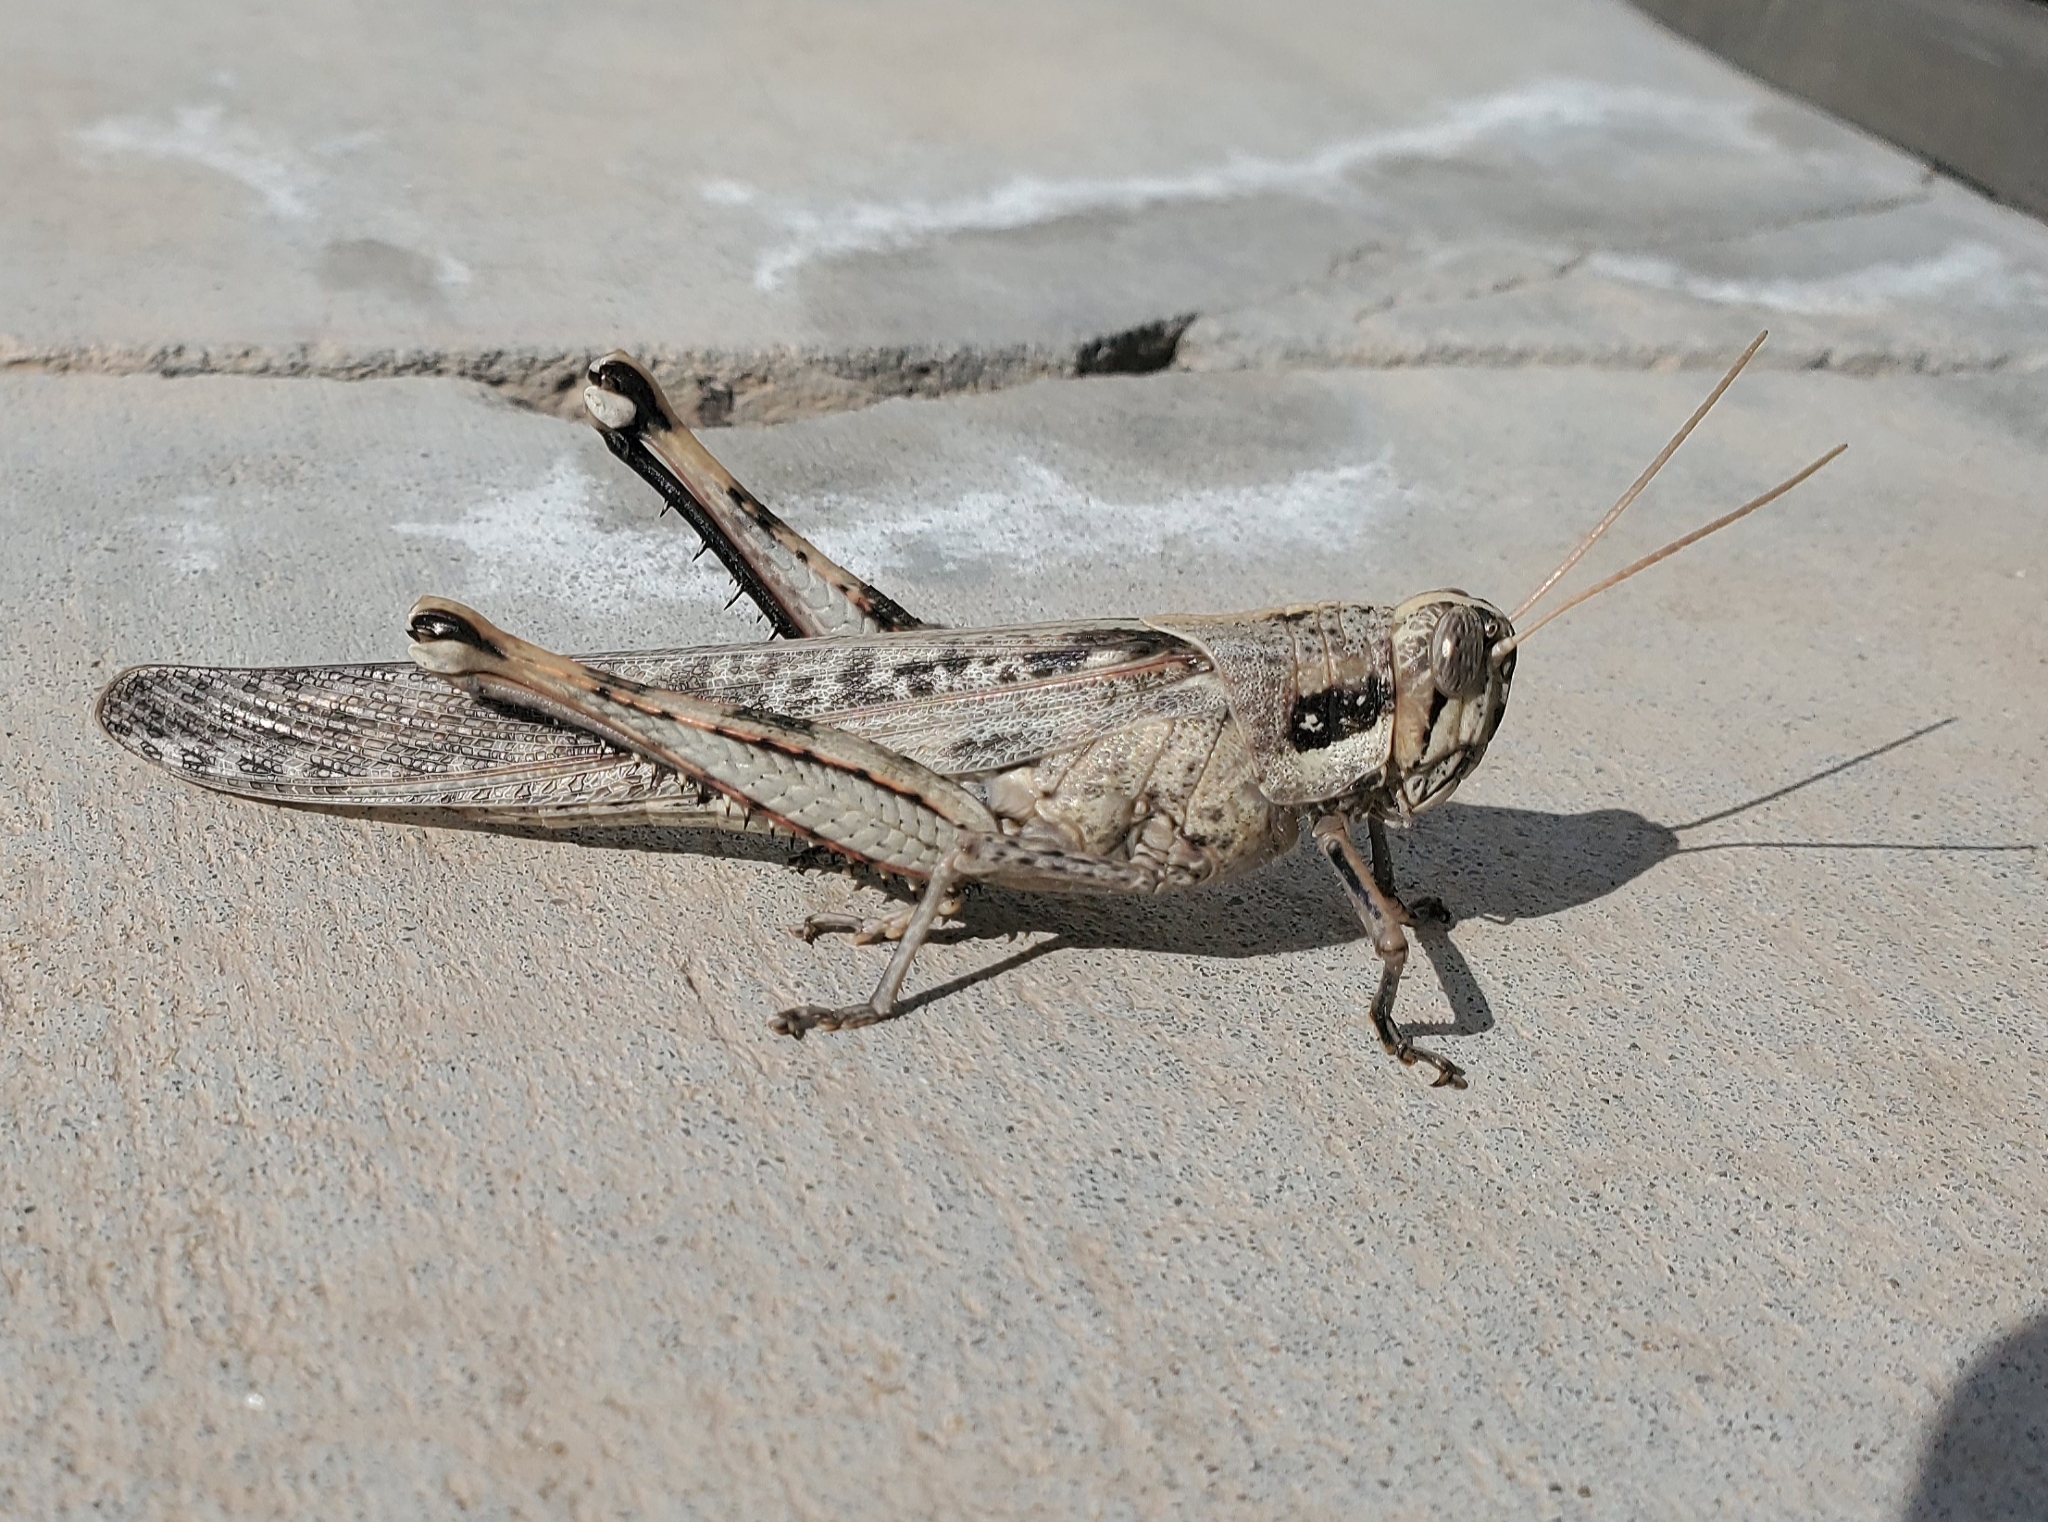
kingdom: Animalia
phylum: Arthropoda
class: Insecta
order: Orthoptera
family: Acrididae
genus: Schistocerca
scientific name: Schistocerca nitens
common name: Vagrant grasshopper
